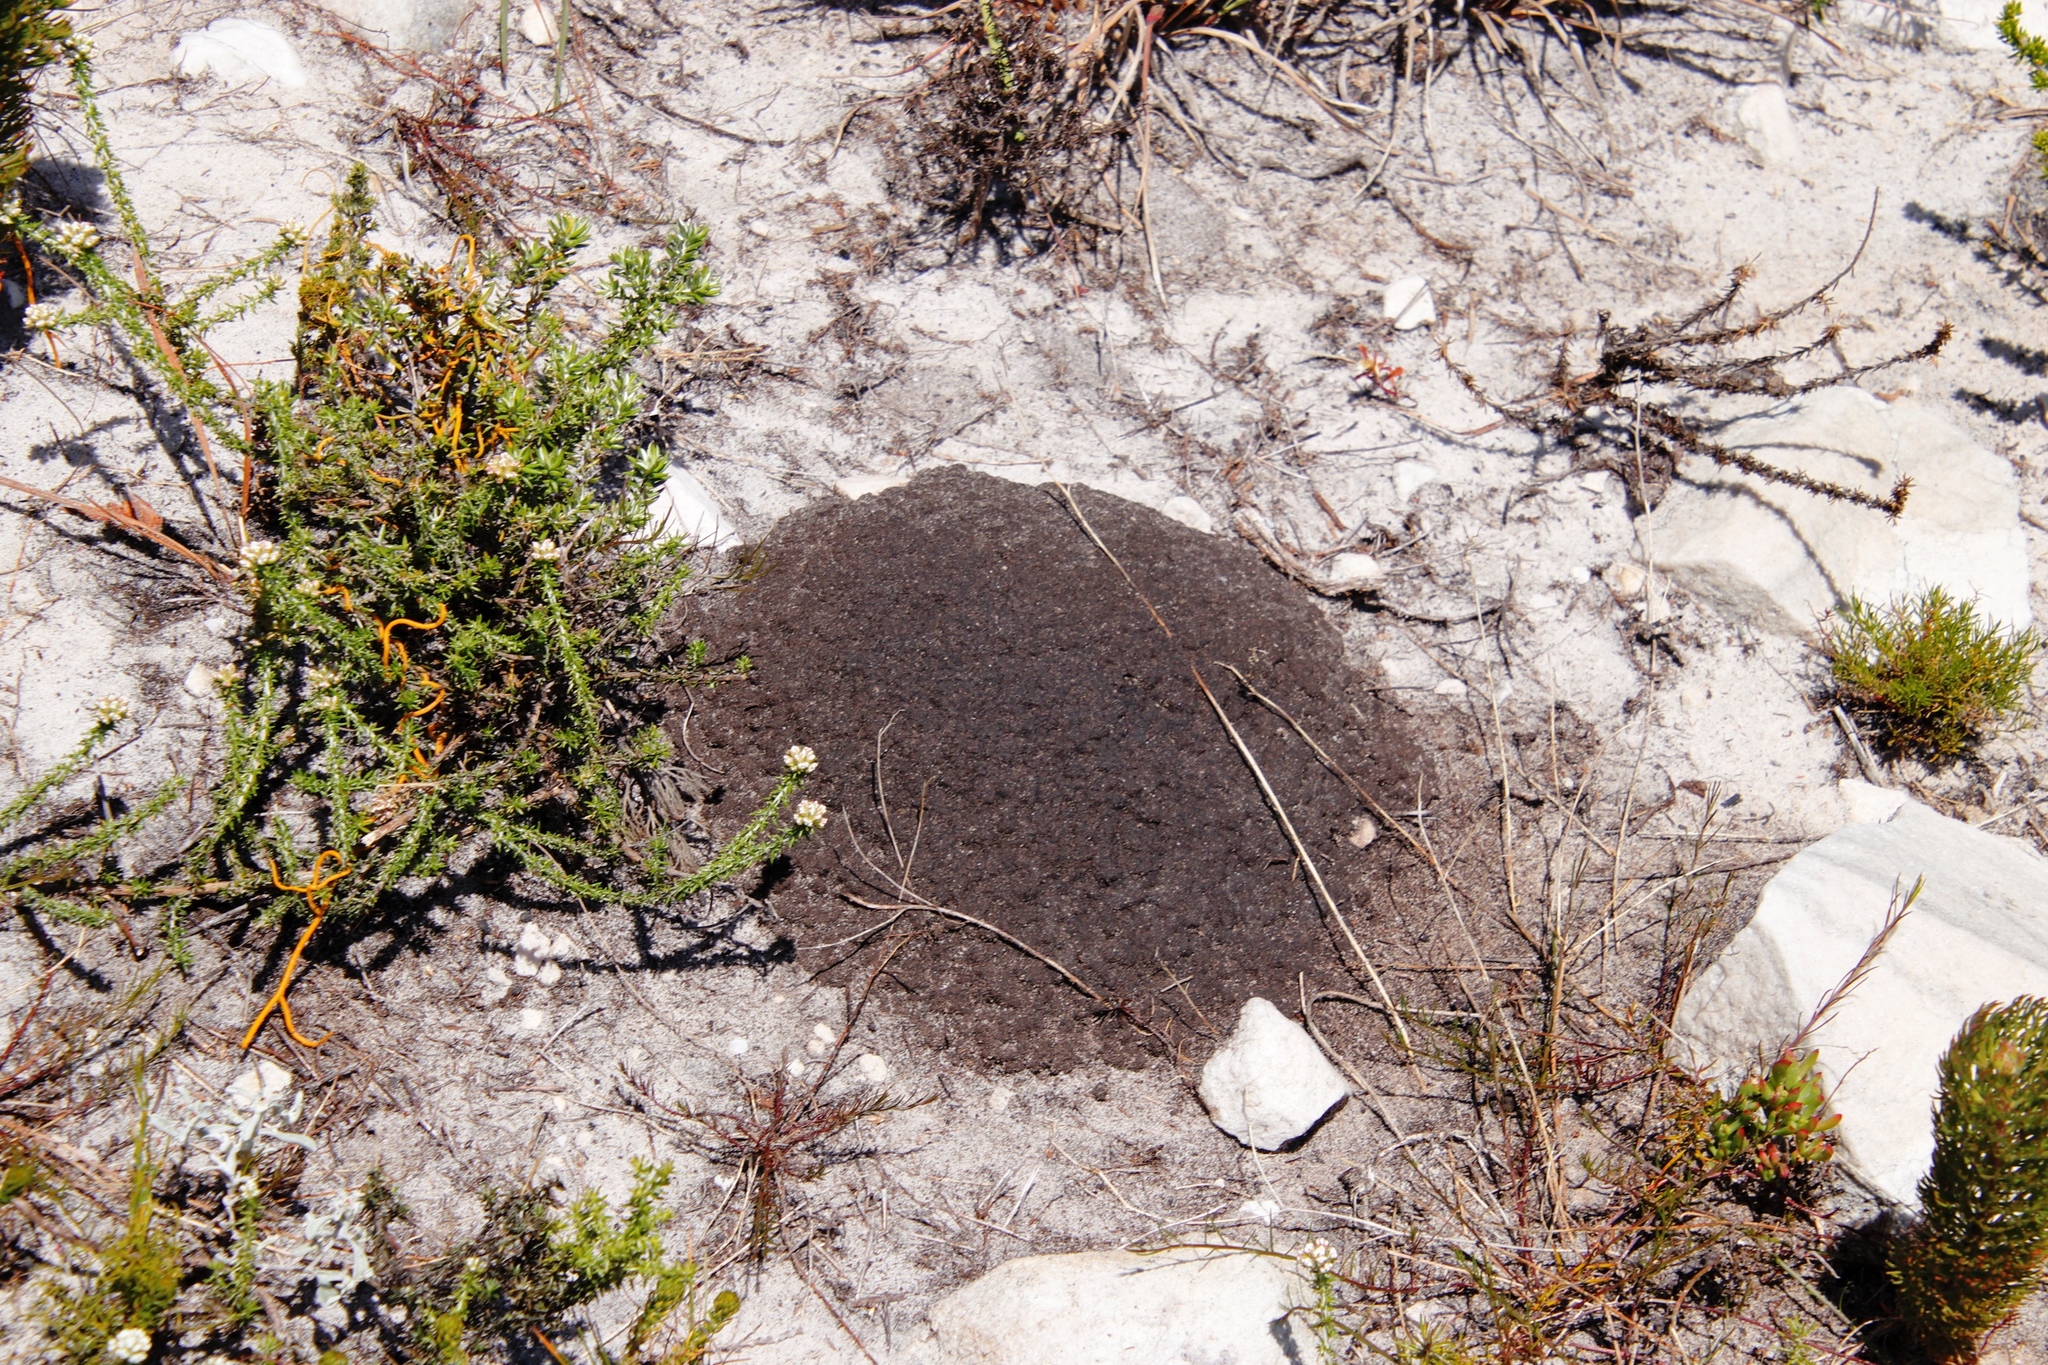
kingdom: Animalia
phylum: Arthropoda
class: Insecta
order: Blattodea
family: Termitidae
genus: Amitermes
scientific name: Amitermes hastatus
